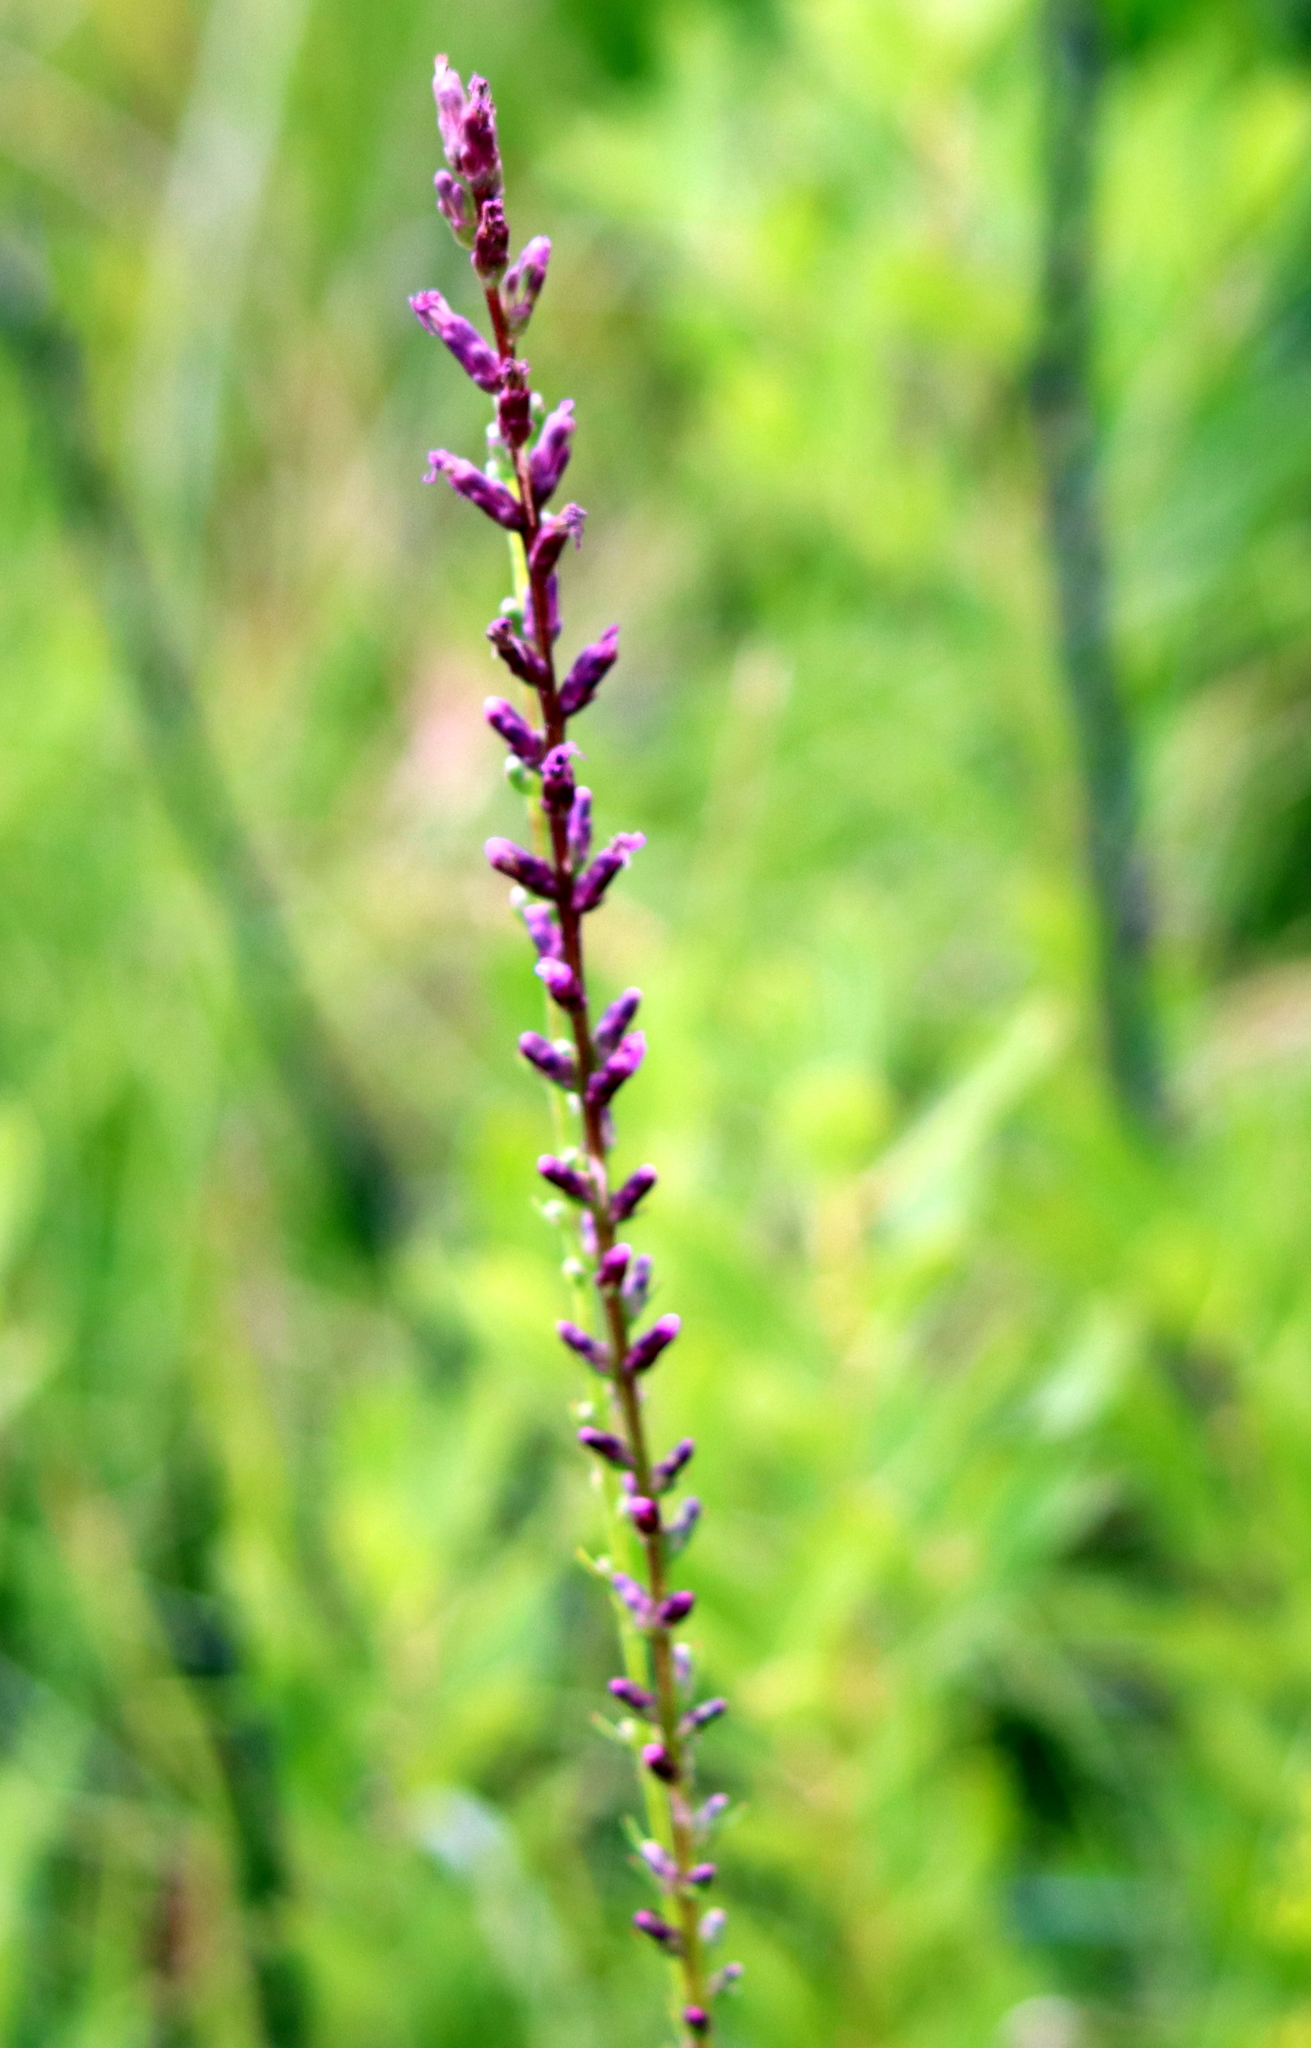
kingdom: Plantae
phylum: Tracheophyta
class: Magnoliopsida
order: Asterales
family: Asteraceae
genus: Liatris
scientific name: Liatris spicata
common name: Florist gayfeather
